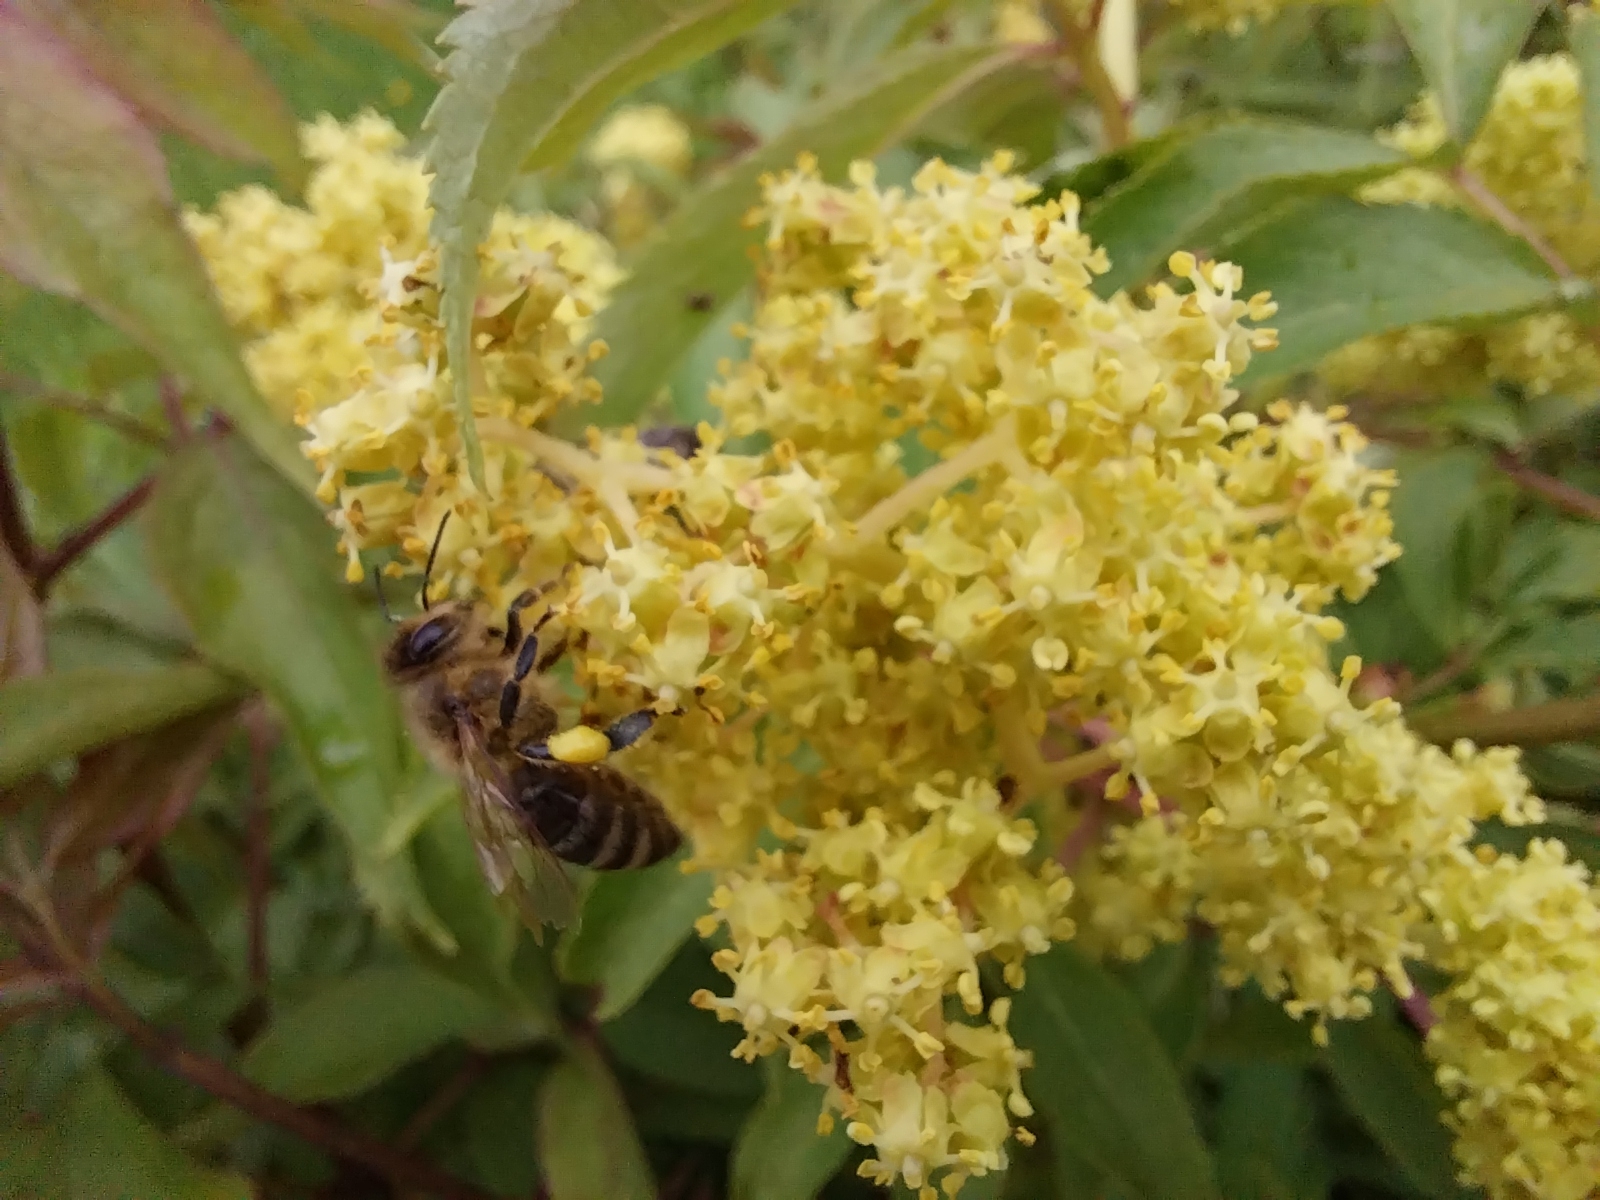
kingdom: Plantae
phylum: Tracheophyta
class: Magnoliopsida
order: Dipsacales
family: Viburnaceae
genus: Sambucus
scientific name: Sambucus racemosa
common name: Red-berried elder
